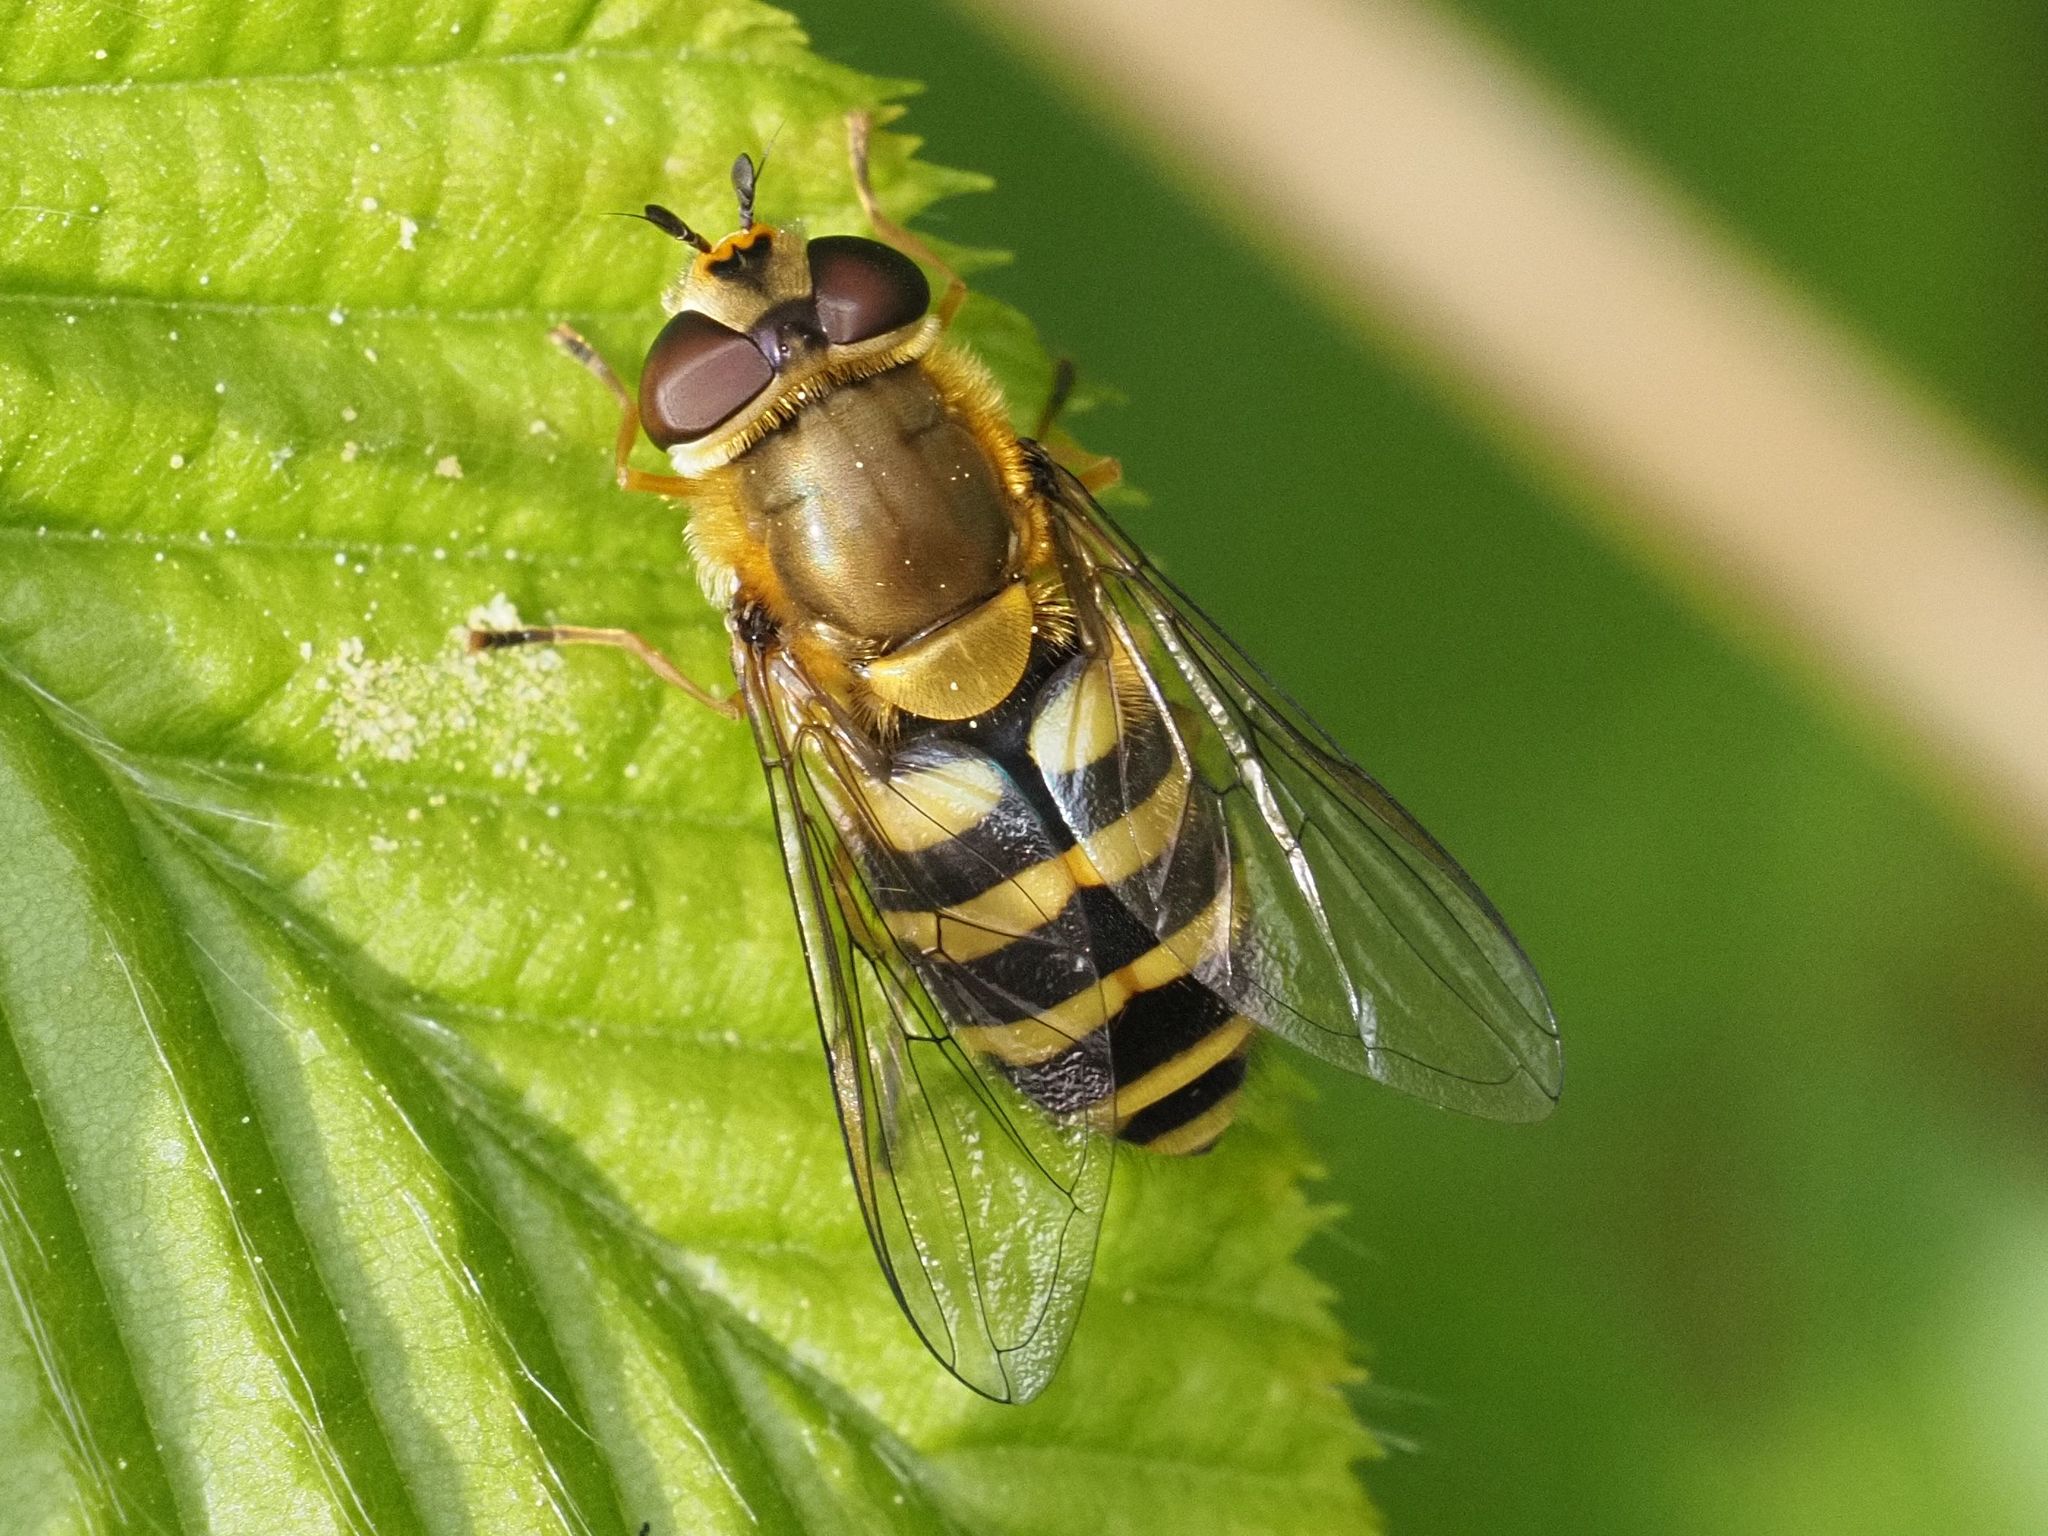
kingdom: Animalia
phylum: Arthropoda
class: Insecta
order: Diptera
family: Syrphidae
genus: Syrphus
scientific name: Syrphus
